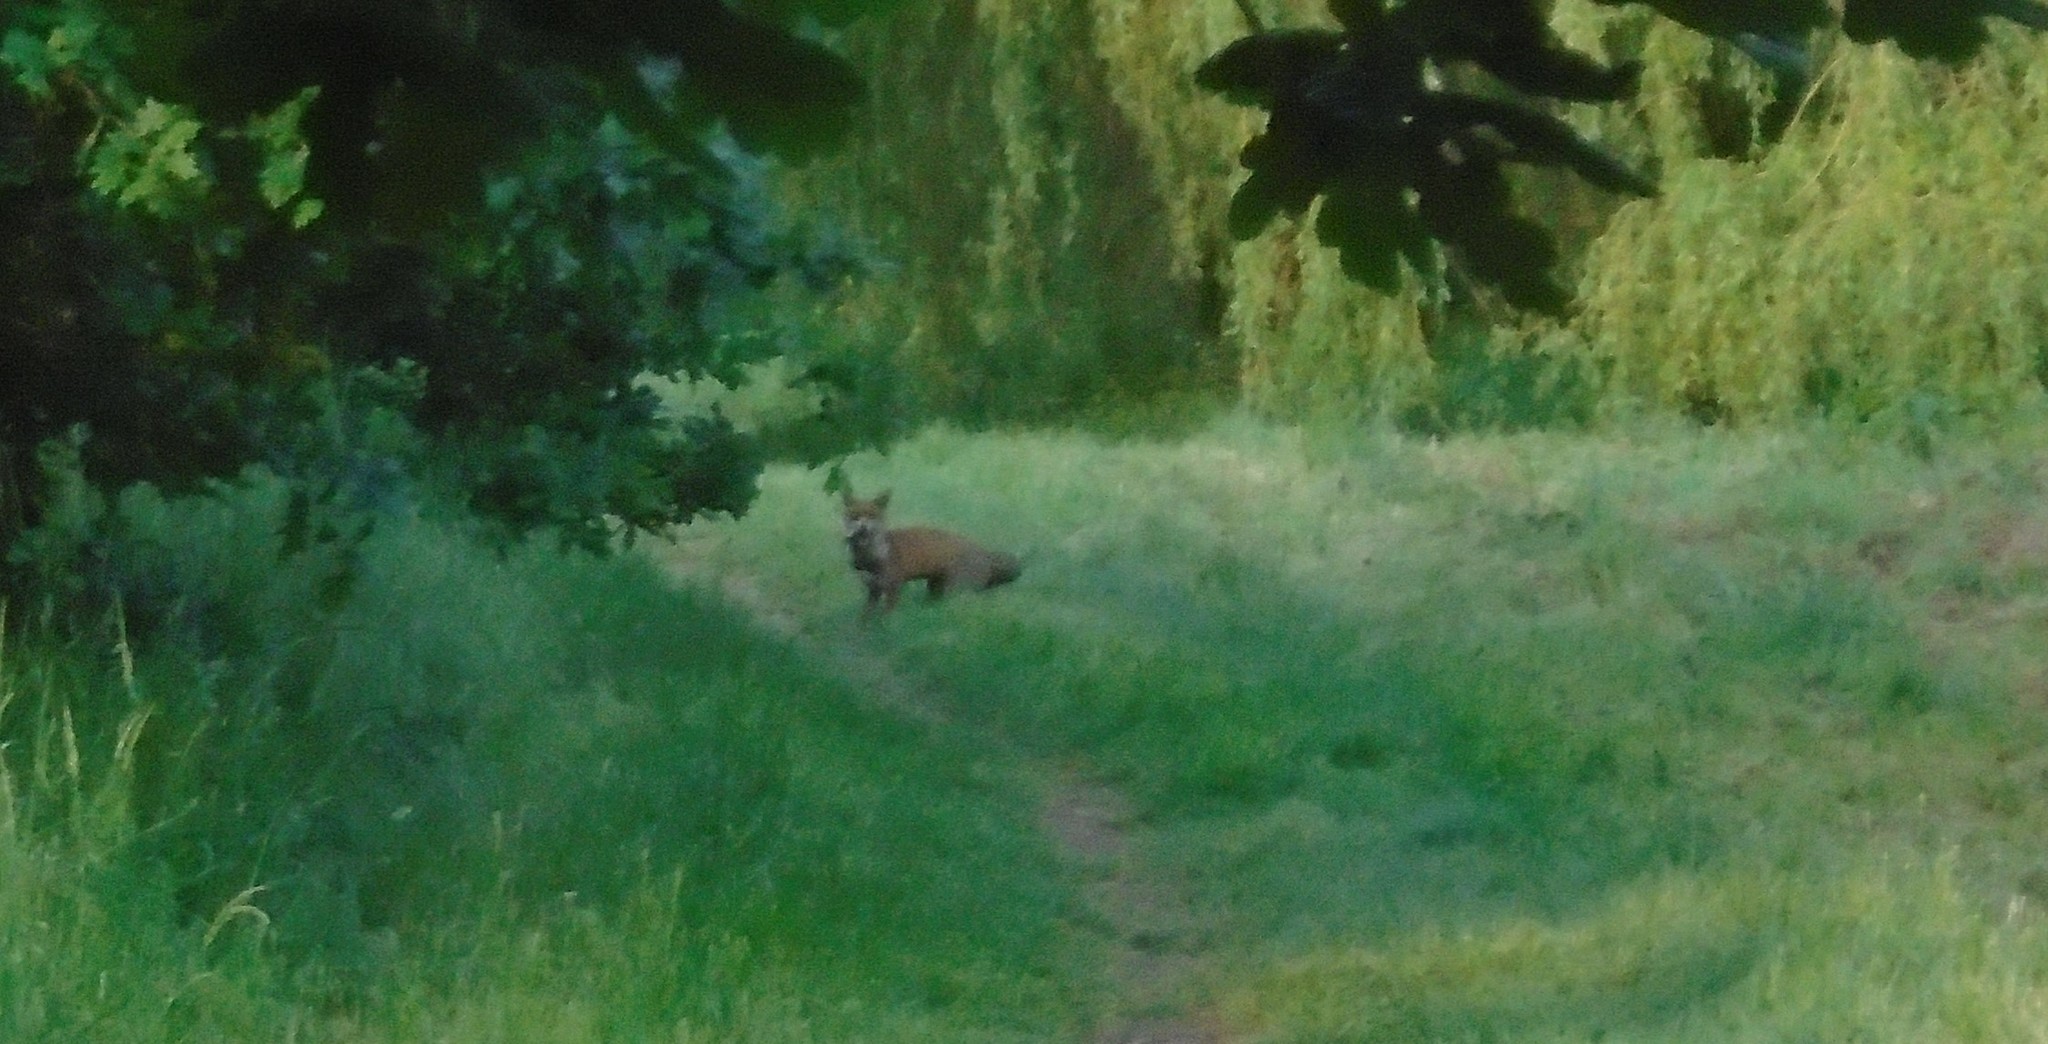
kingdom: Animalia
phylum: Chordata
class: Mammalia
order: Carnivora
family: Canidae
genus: Vulpes
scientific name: Vulpes vulpes
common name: Red fox
